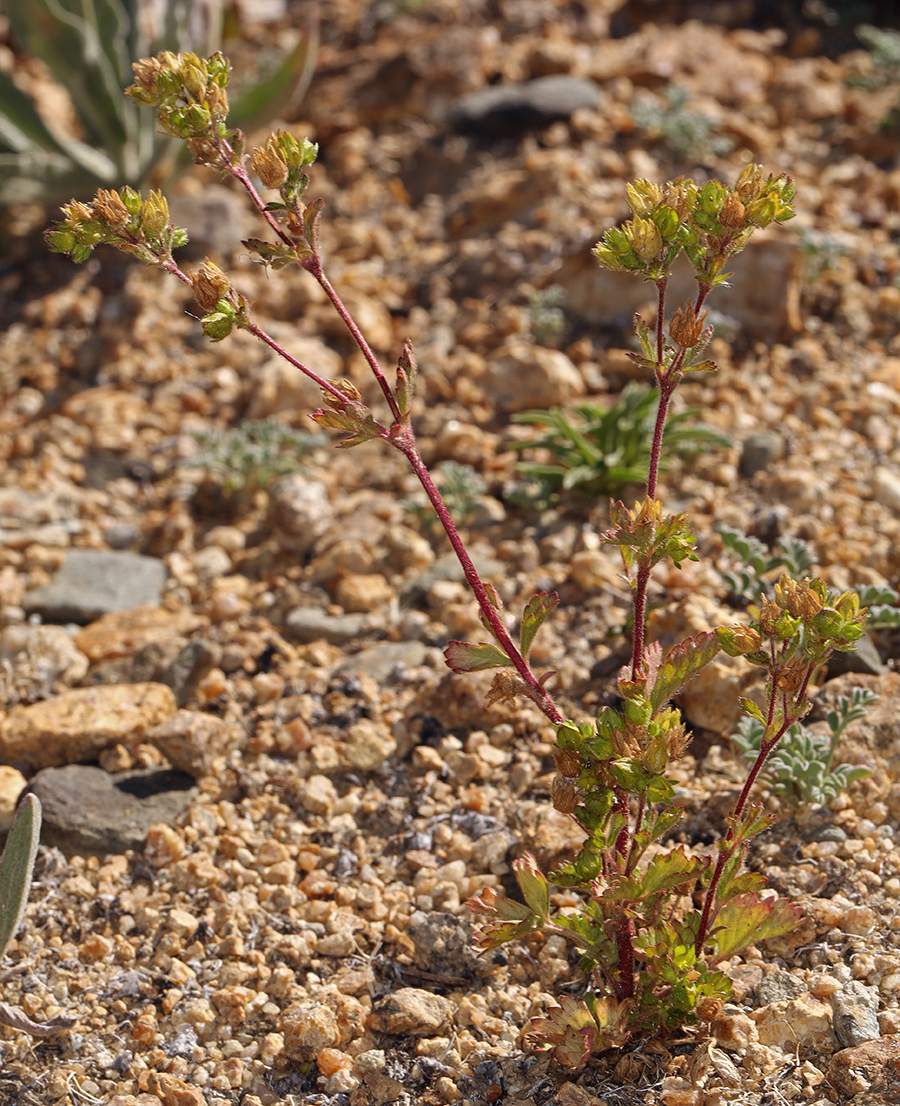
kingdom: Plantae
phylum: Tracheophyta
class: Magnoliopsida
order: Rosales
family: Rosaceae
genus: Potentilla
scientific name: Potentilla biennis
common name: Greene's cinquefoil
